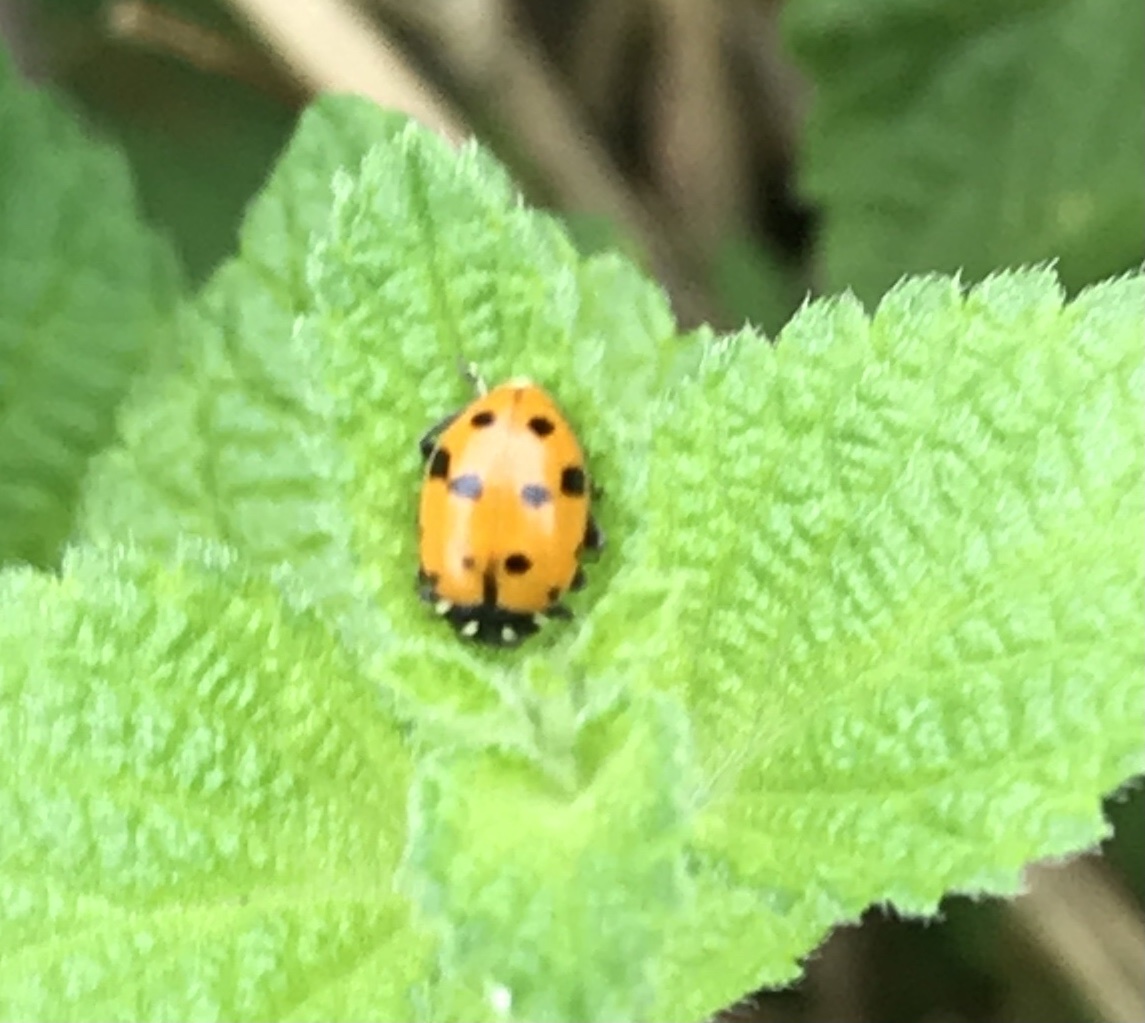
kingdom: Animalia
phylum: Arthropoda
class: Insecta
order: Coleoptera
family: Coccinellidae
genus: Hippodamia
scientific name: Hippodamia convergens
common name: Convergent lady beetle
